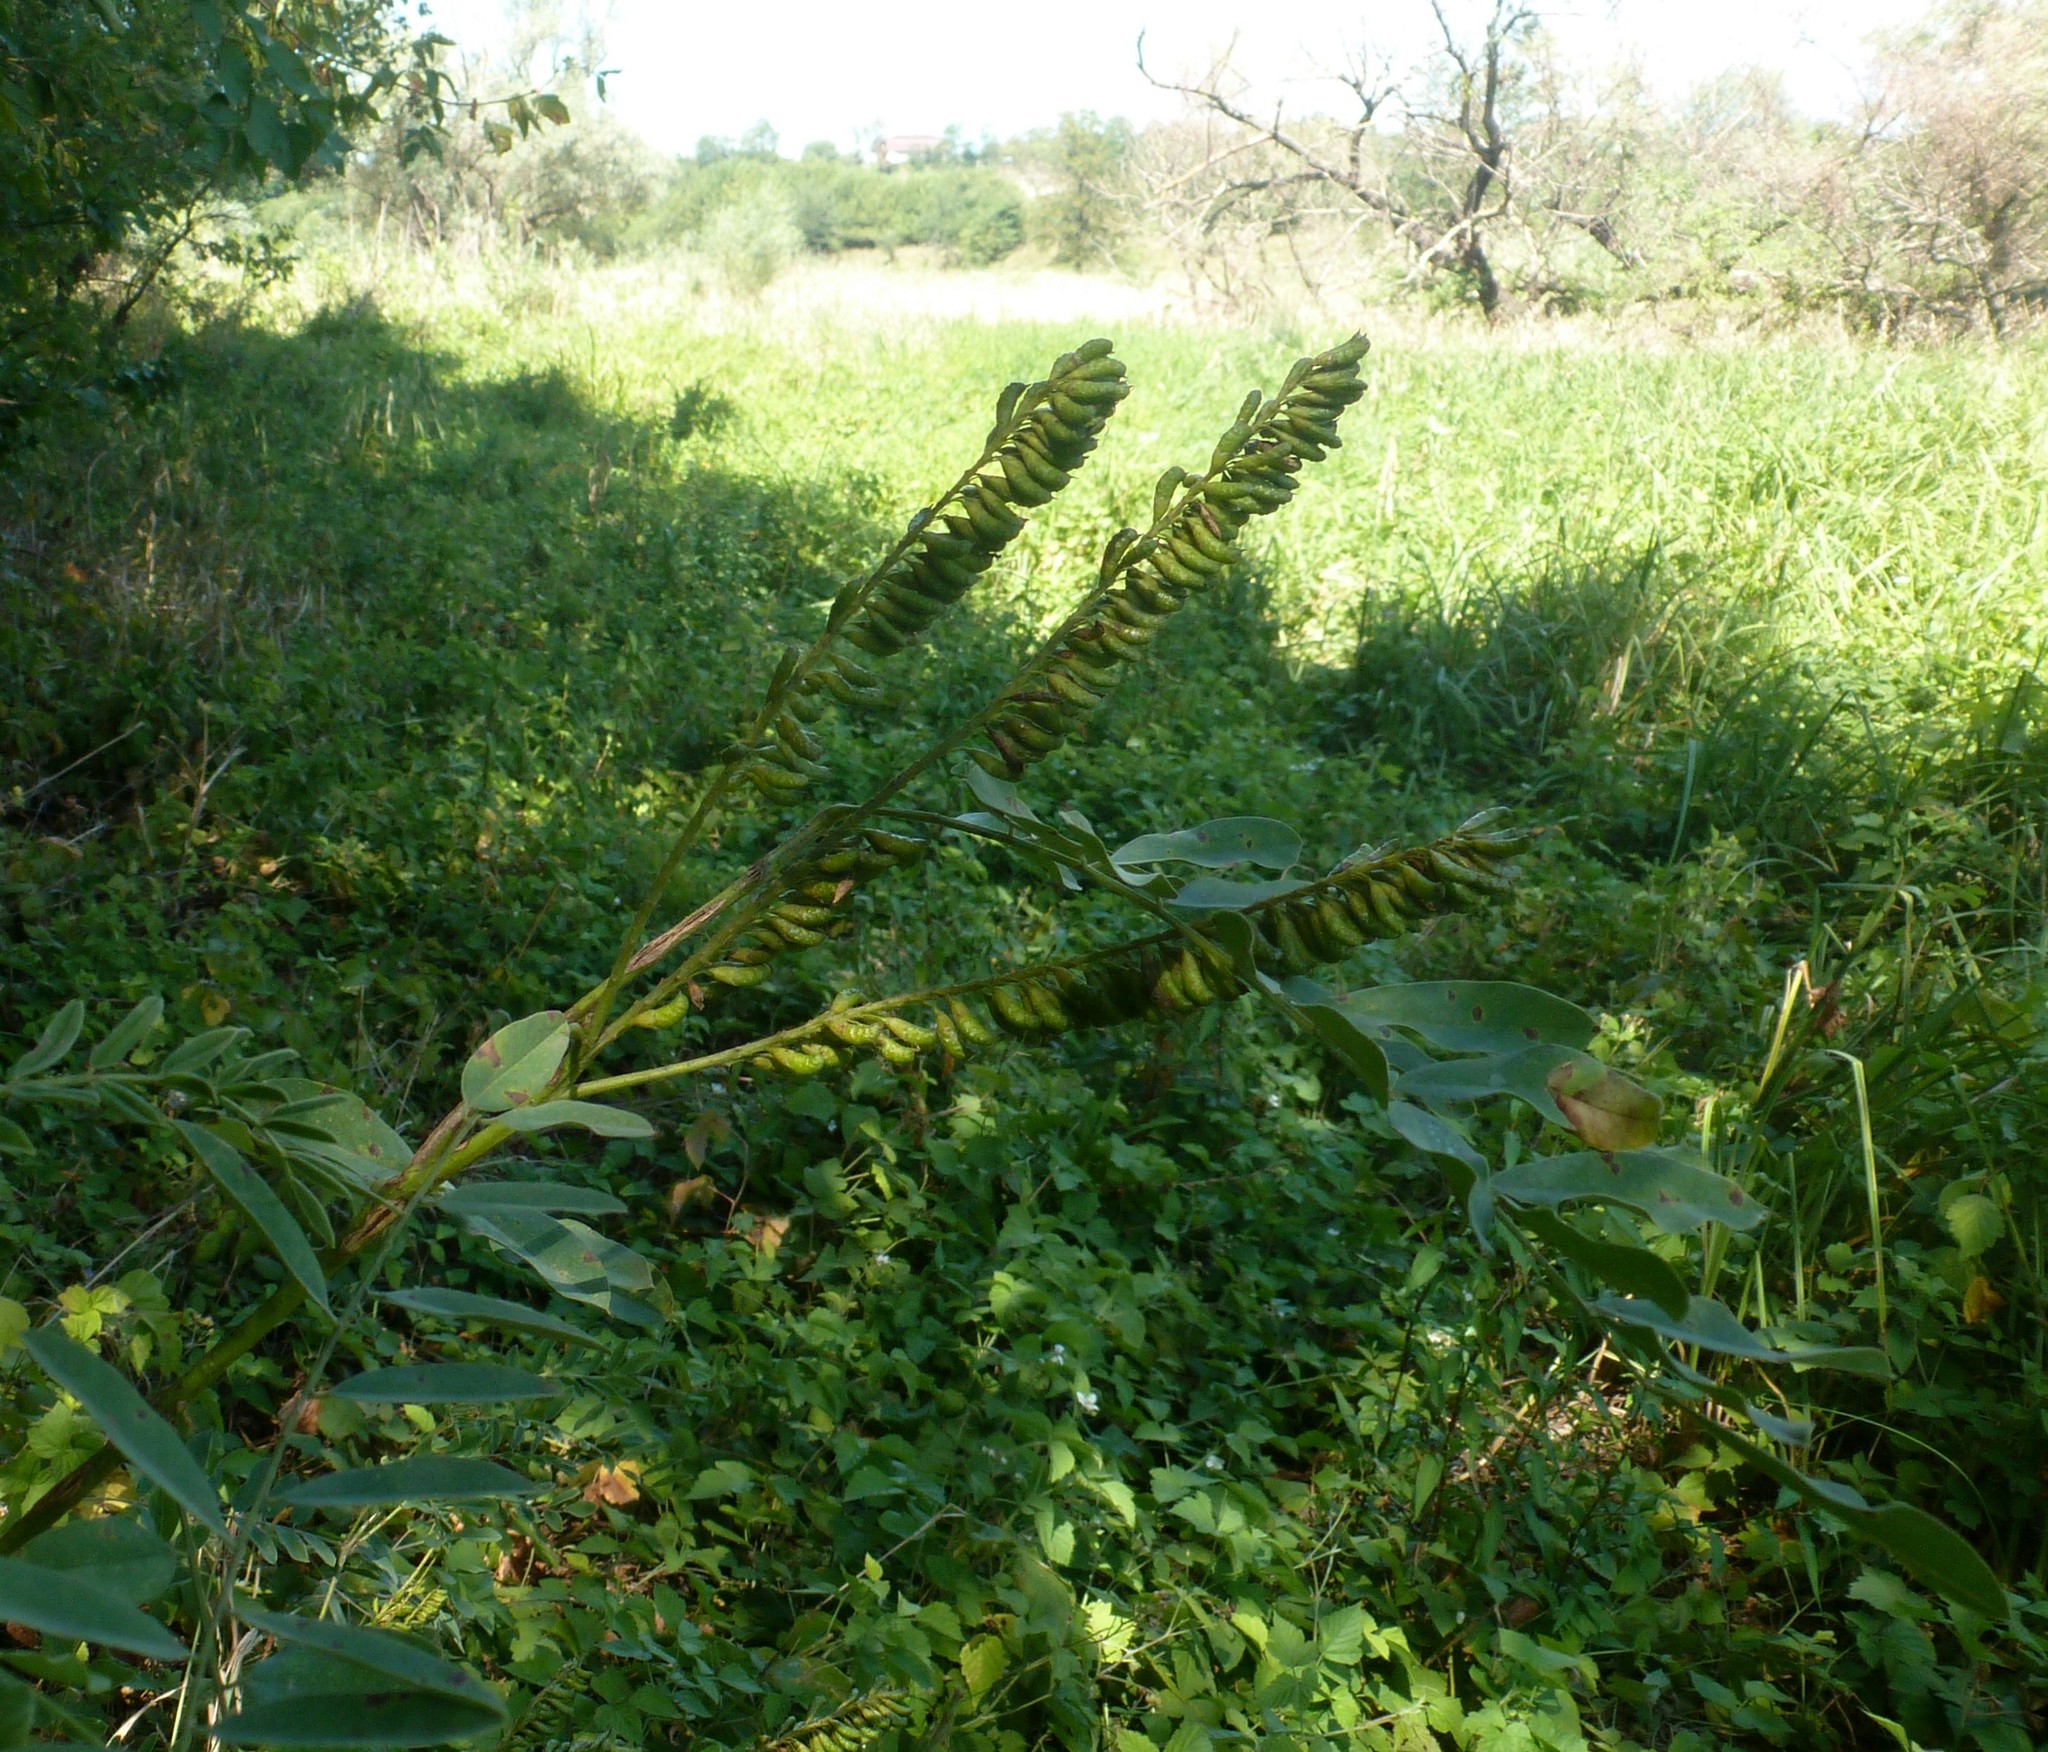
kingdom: Plantae
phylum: Tracheophyta
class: Magnoliopsida
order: Fabales
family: Fabaceae
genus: Amorpha
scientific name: Amorpha fruticosa
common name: False indigo
